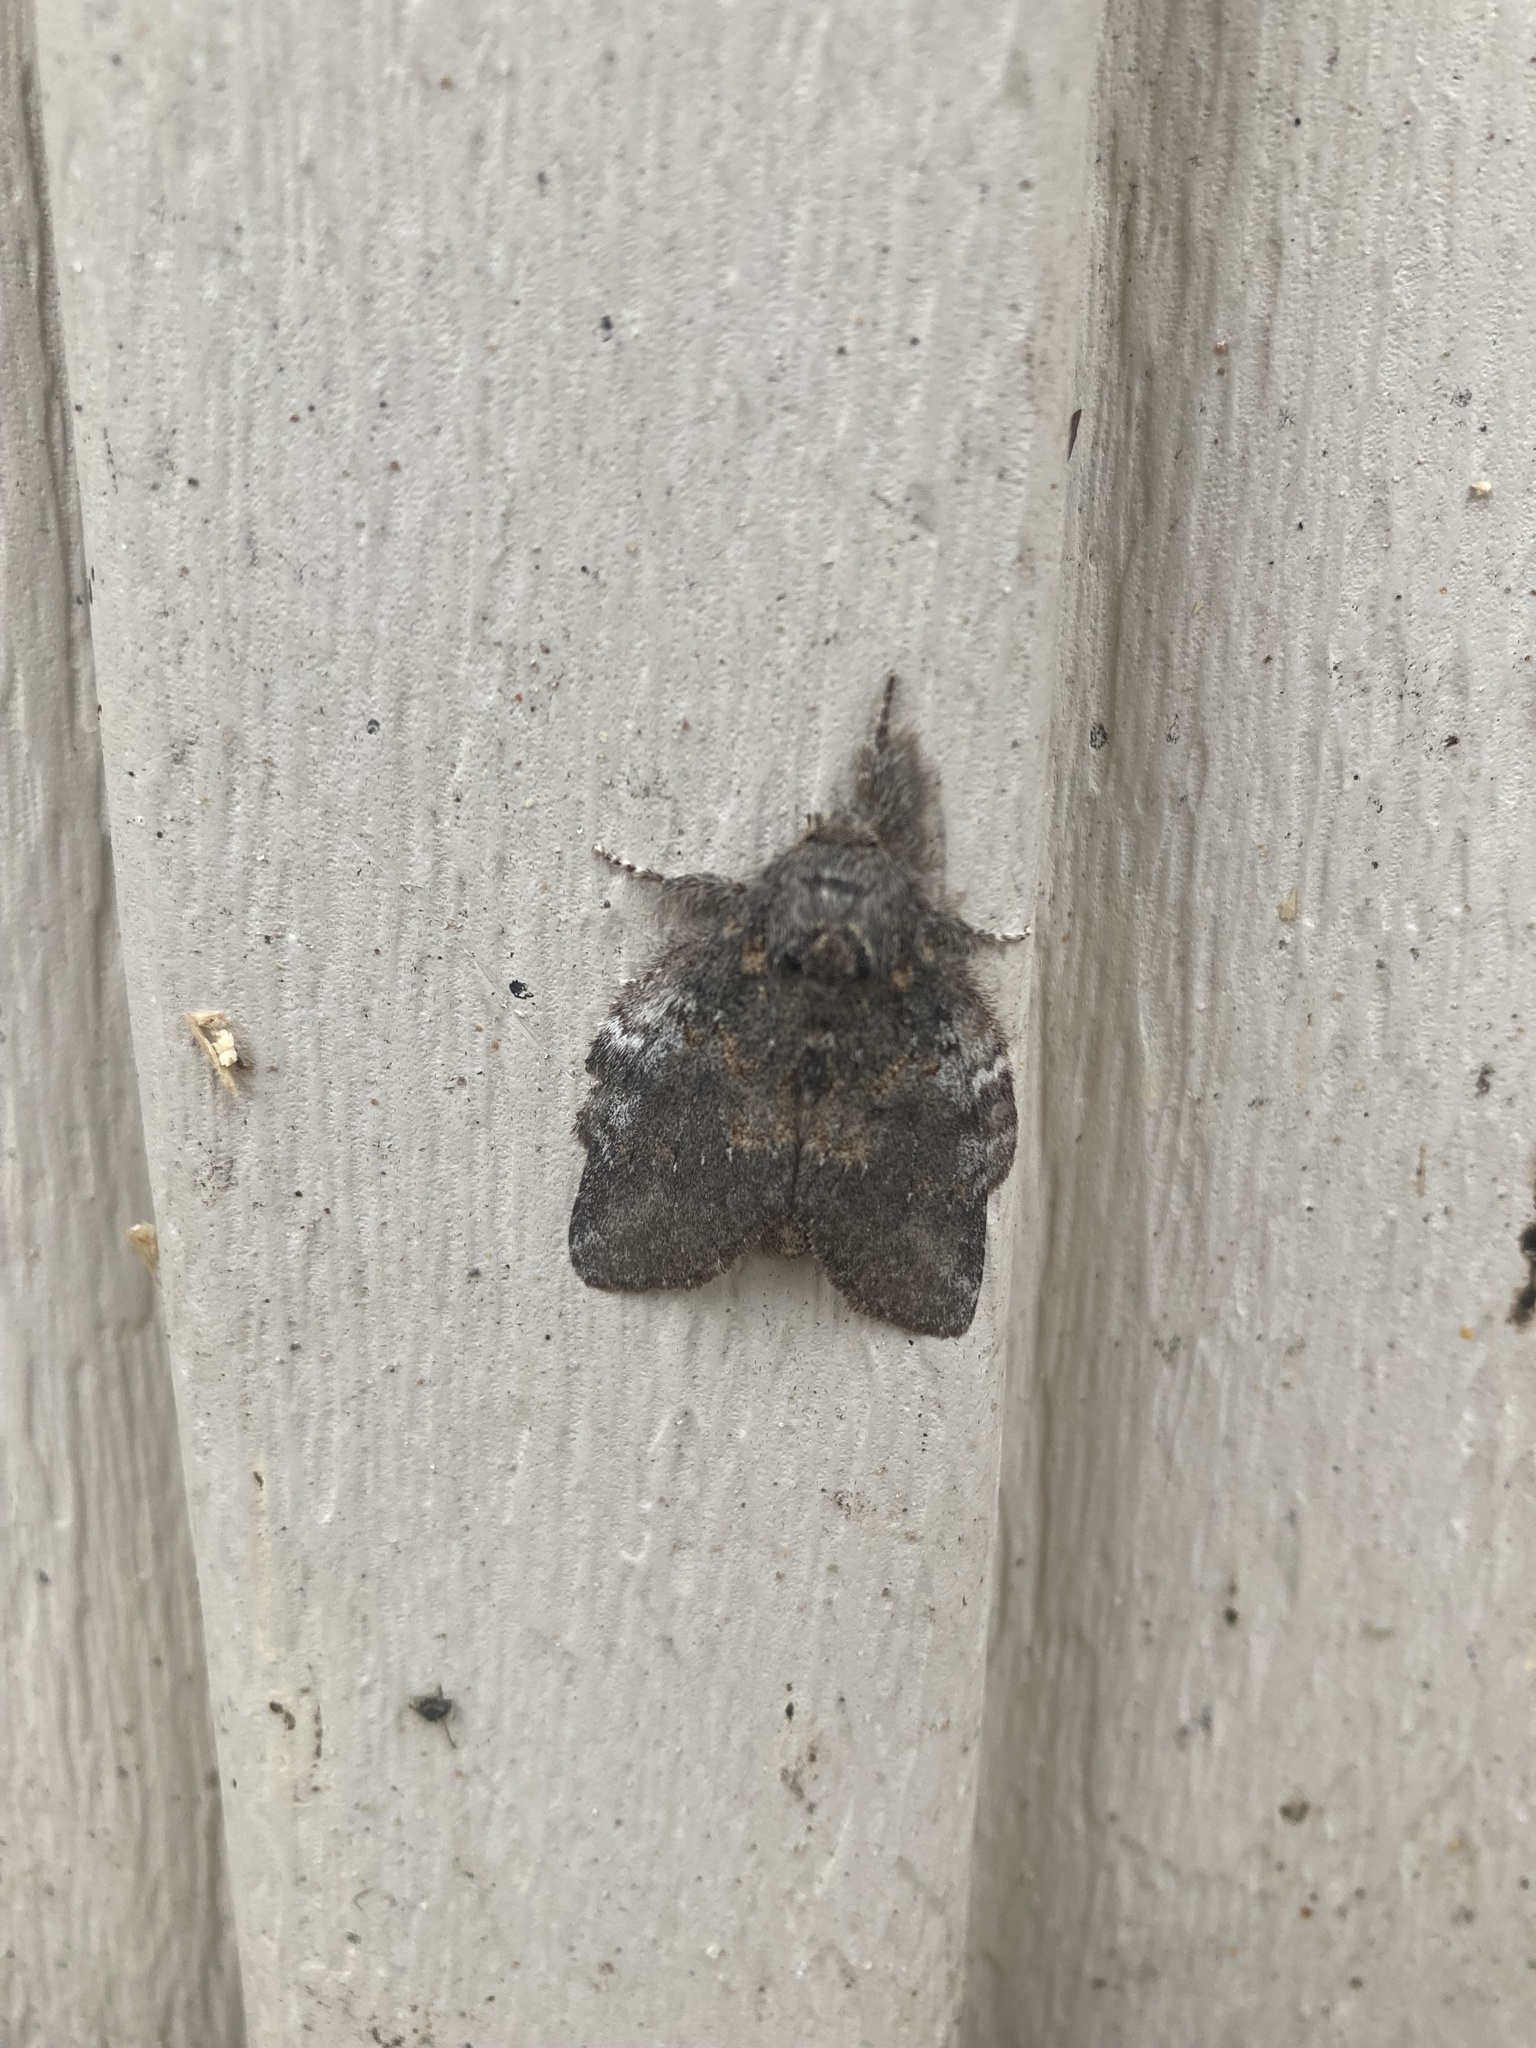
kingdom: Animalia
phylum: Arthropoda
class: Insecta
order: Lepidoptera
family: Notodontidae
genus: Peridea
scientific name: Peridea angulosa
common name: Angulose prominent
